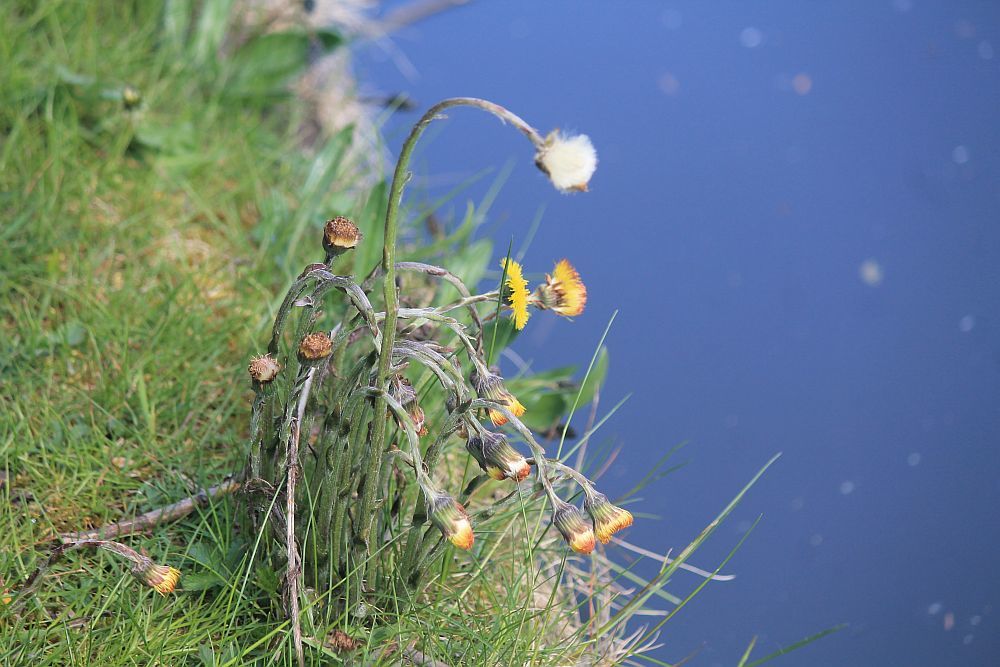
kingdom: Plantae
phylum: Tracheophyta
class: Magnoliopsida
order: Asterales
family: Asteraceae
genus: Tussilago
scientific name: Tussilago farfara
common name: Coltsfoot
